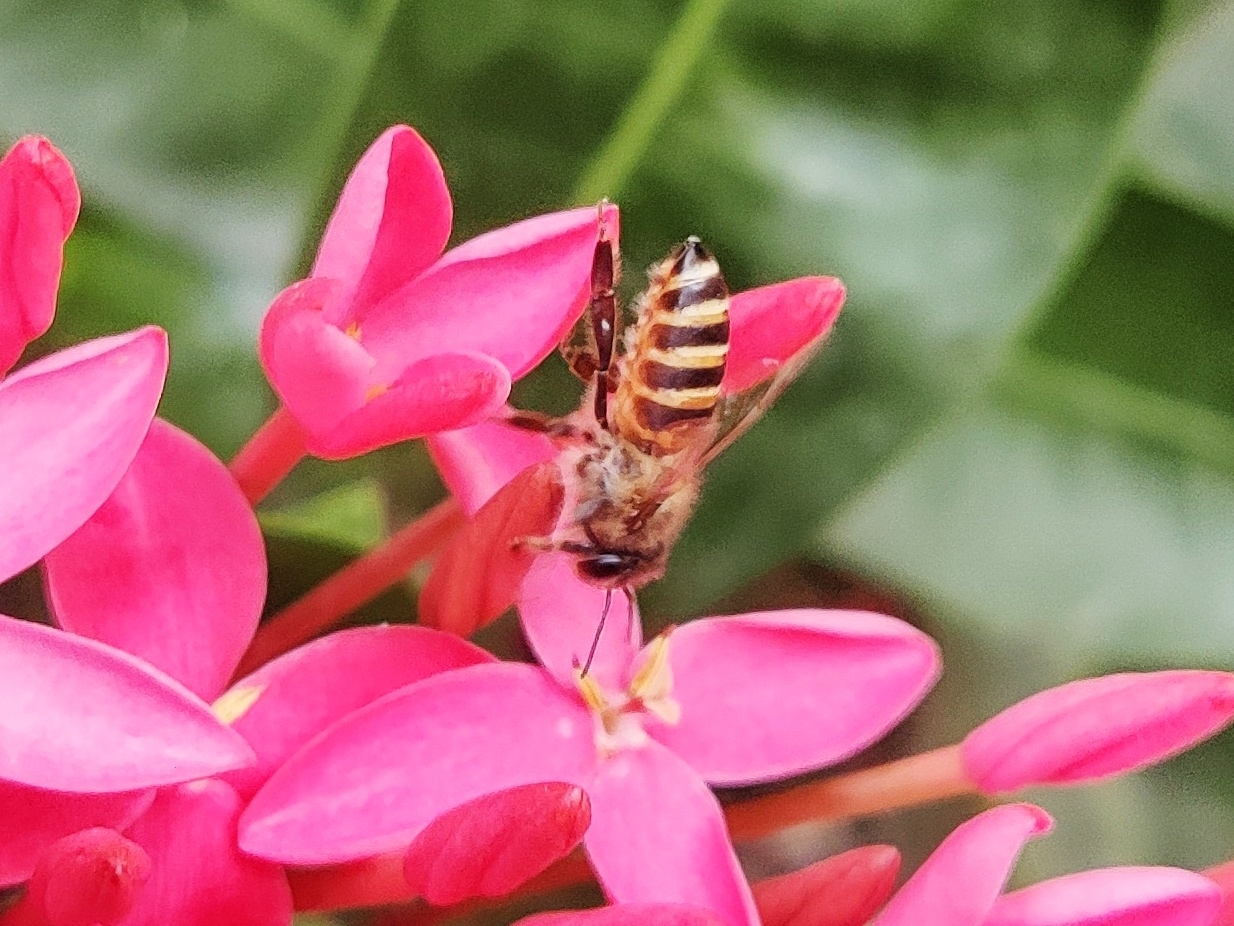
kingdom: Animalia
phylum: Arthropoda
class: Insecta
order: Hymenoptera
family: Apidae
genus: Apis
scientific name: Apis cerana
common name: Honey bee
